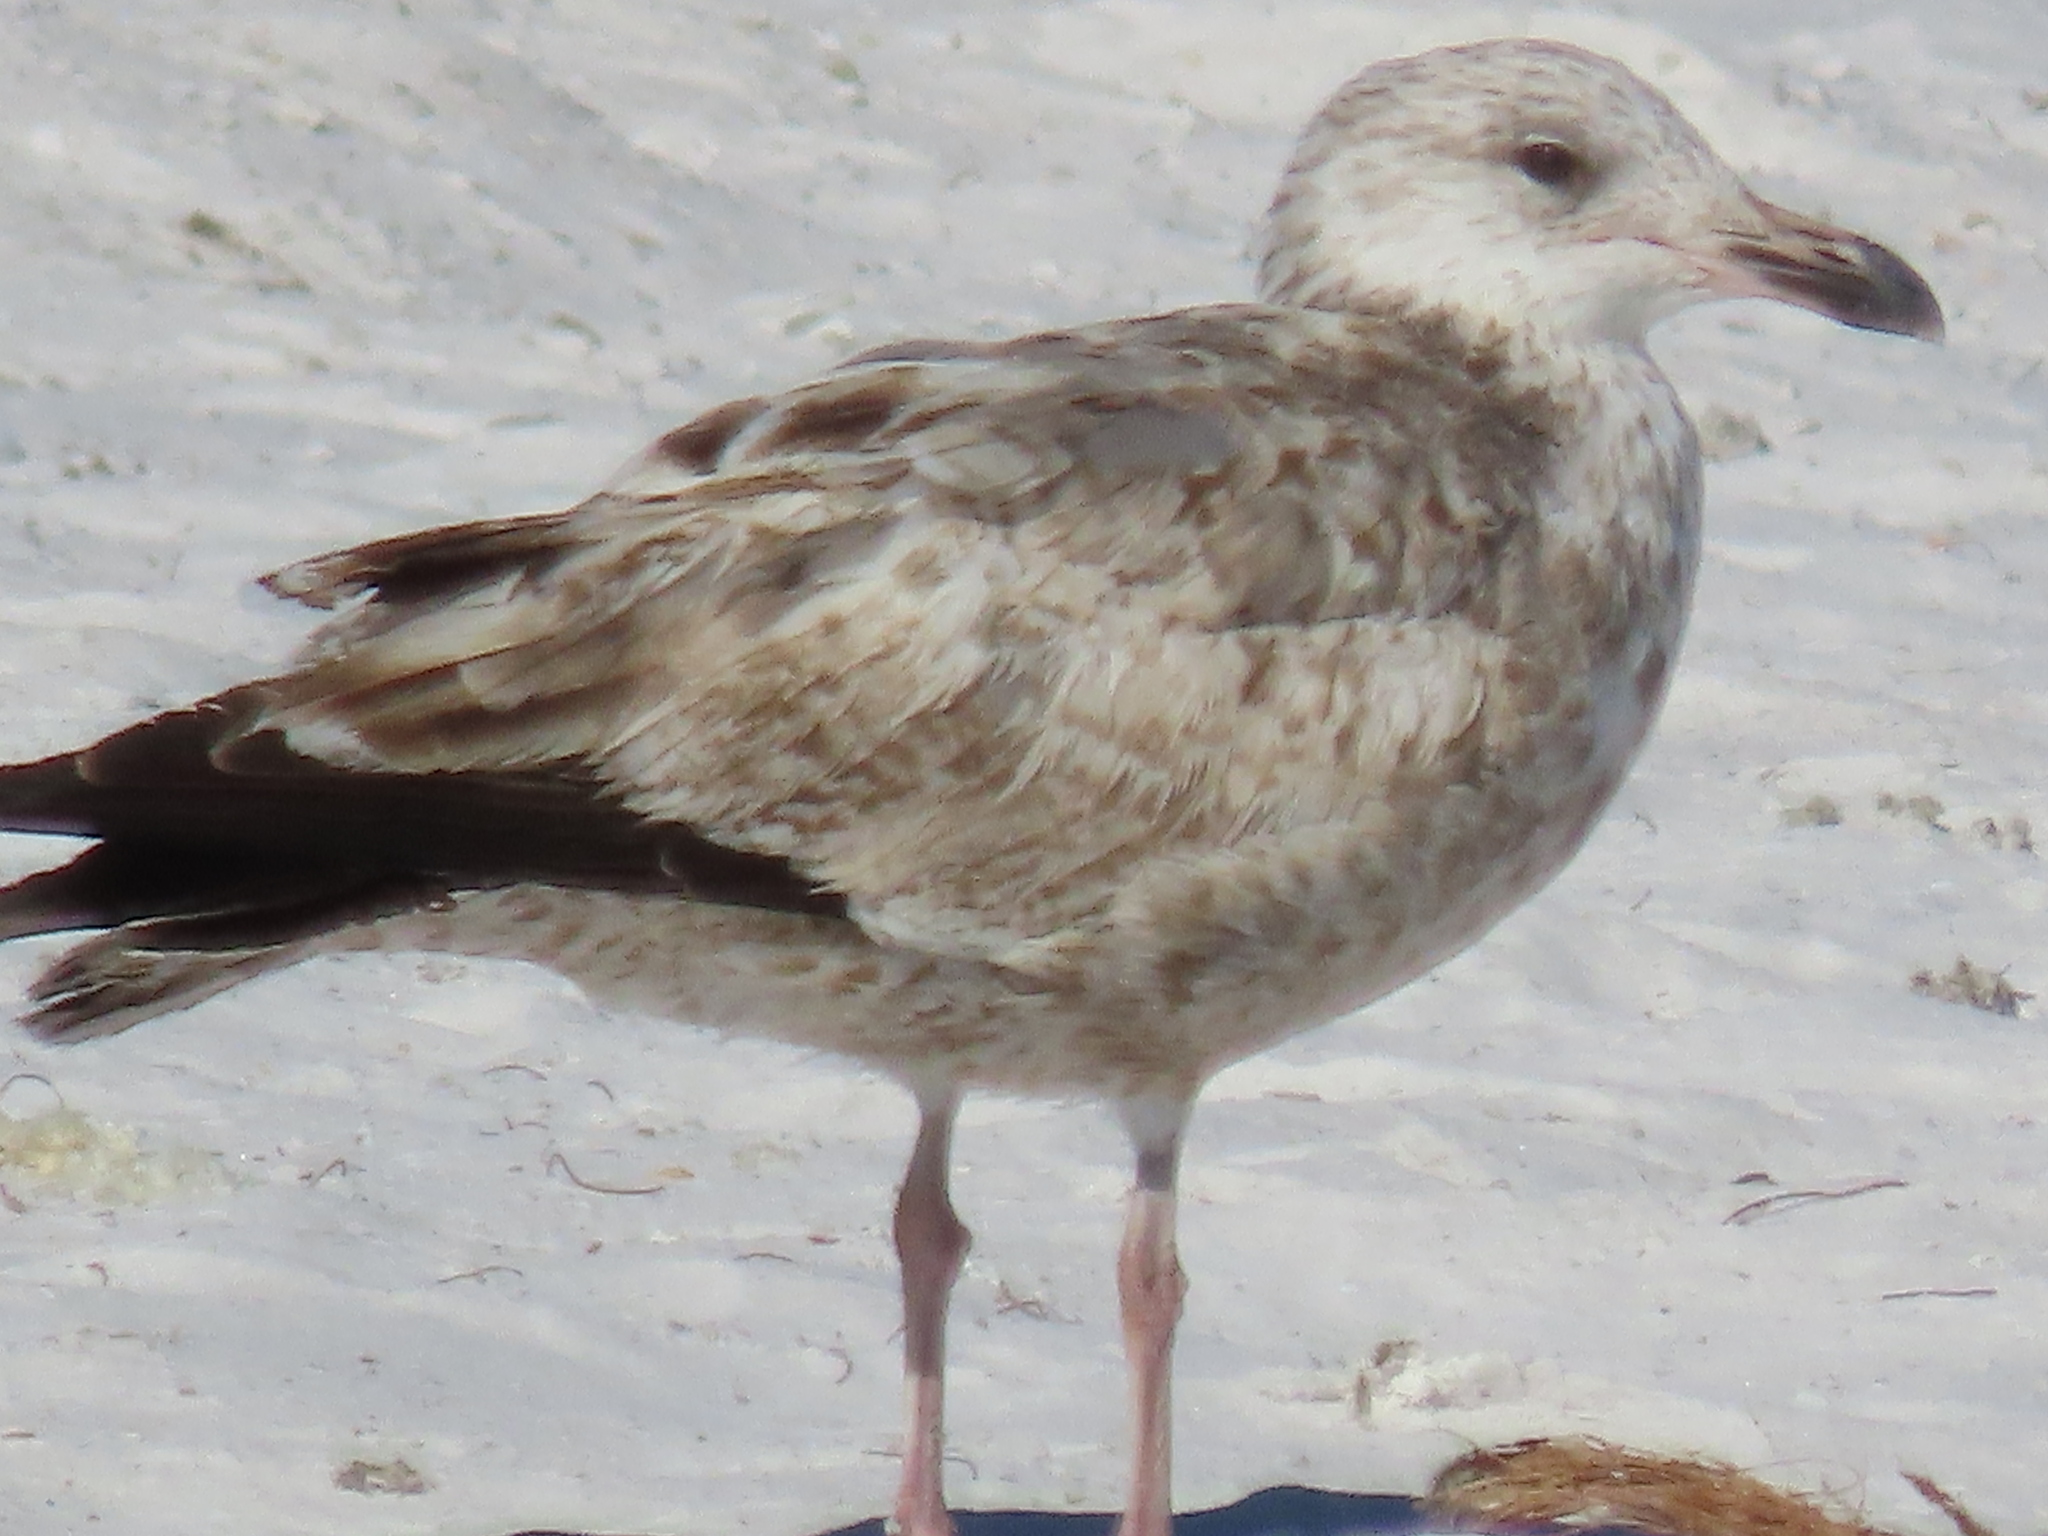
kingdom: Animalia
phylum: Chordata
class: Aves
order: Charadriiformes
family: Laridae
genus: Larus
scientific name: Larus argentatus
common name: Herring gull
